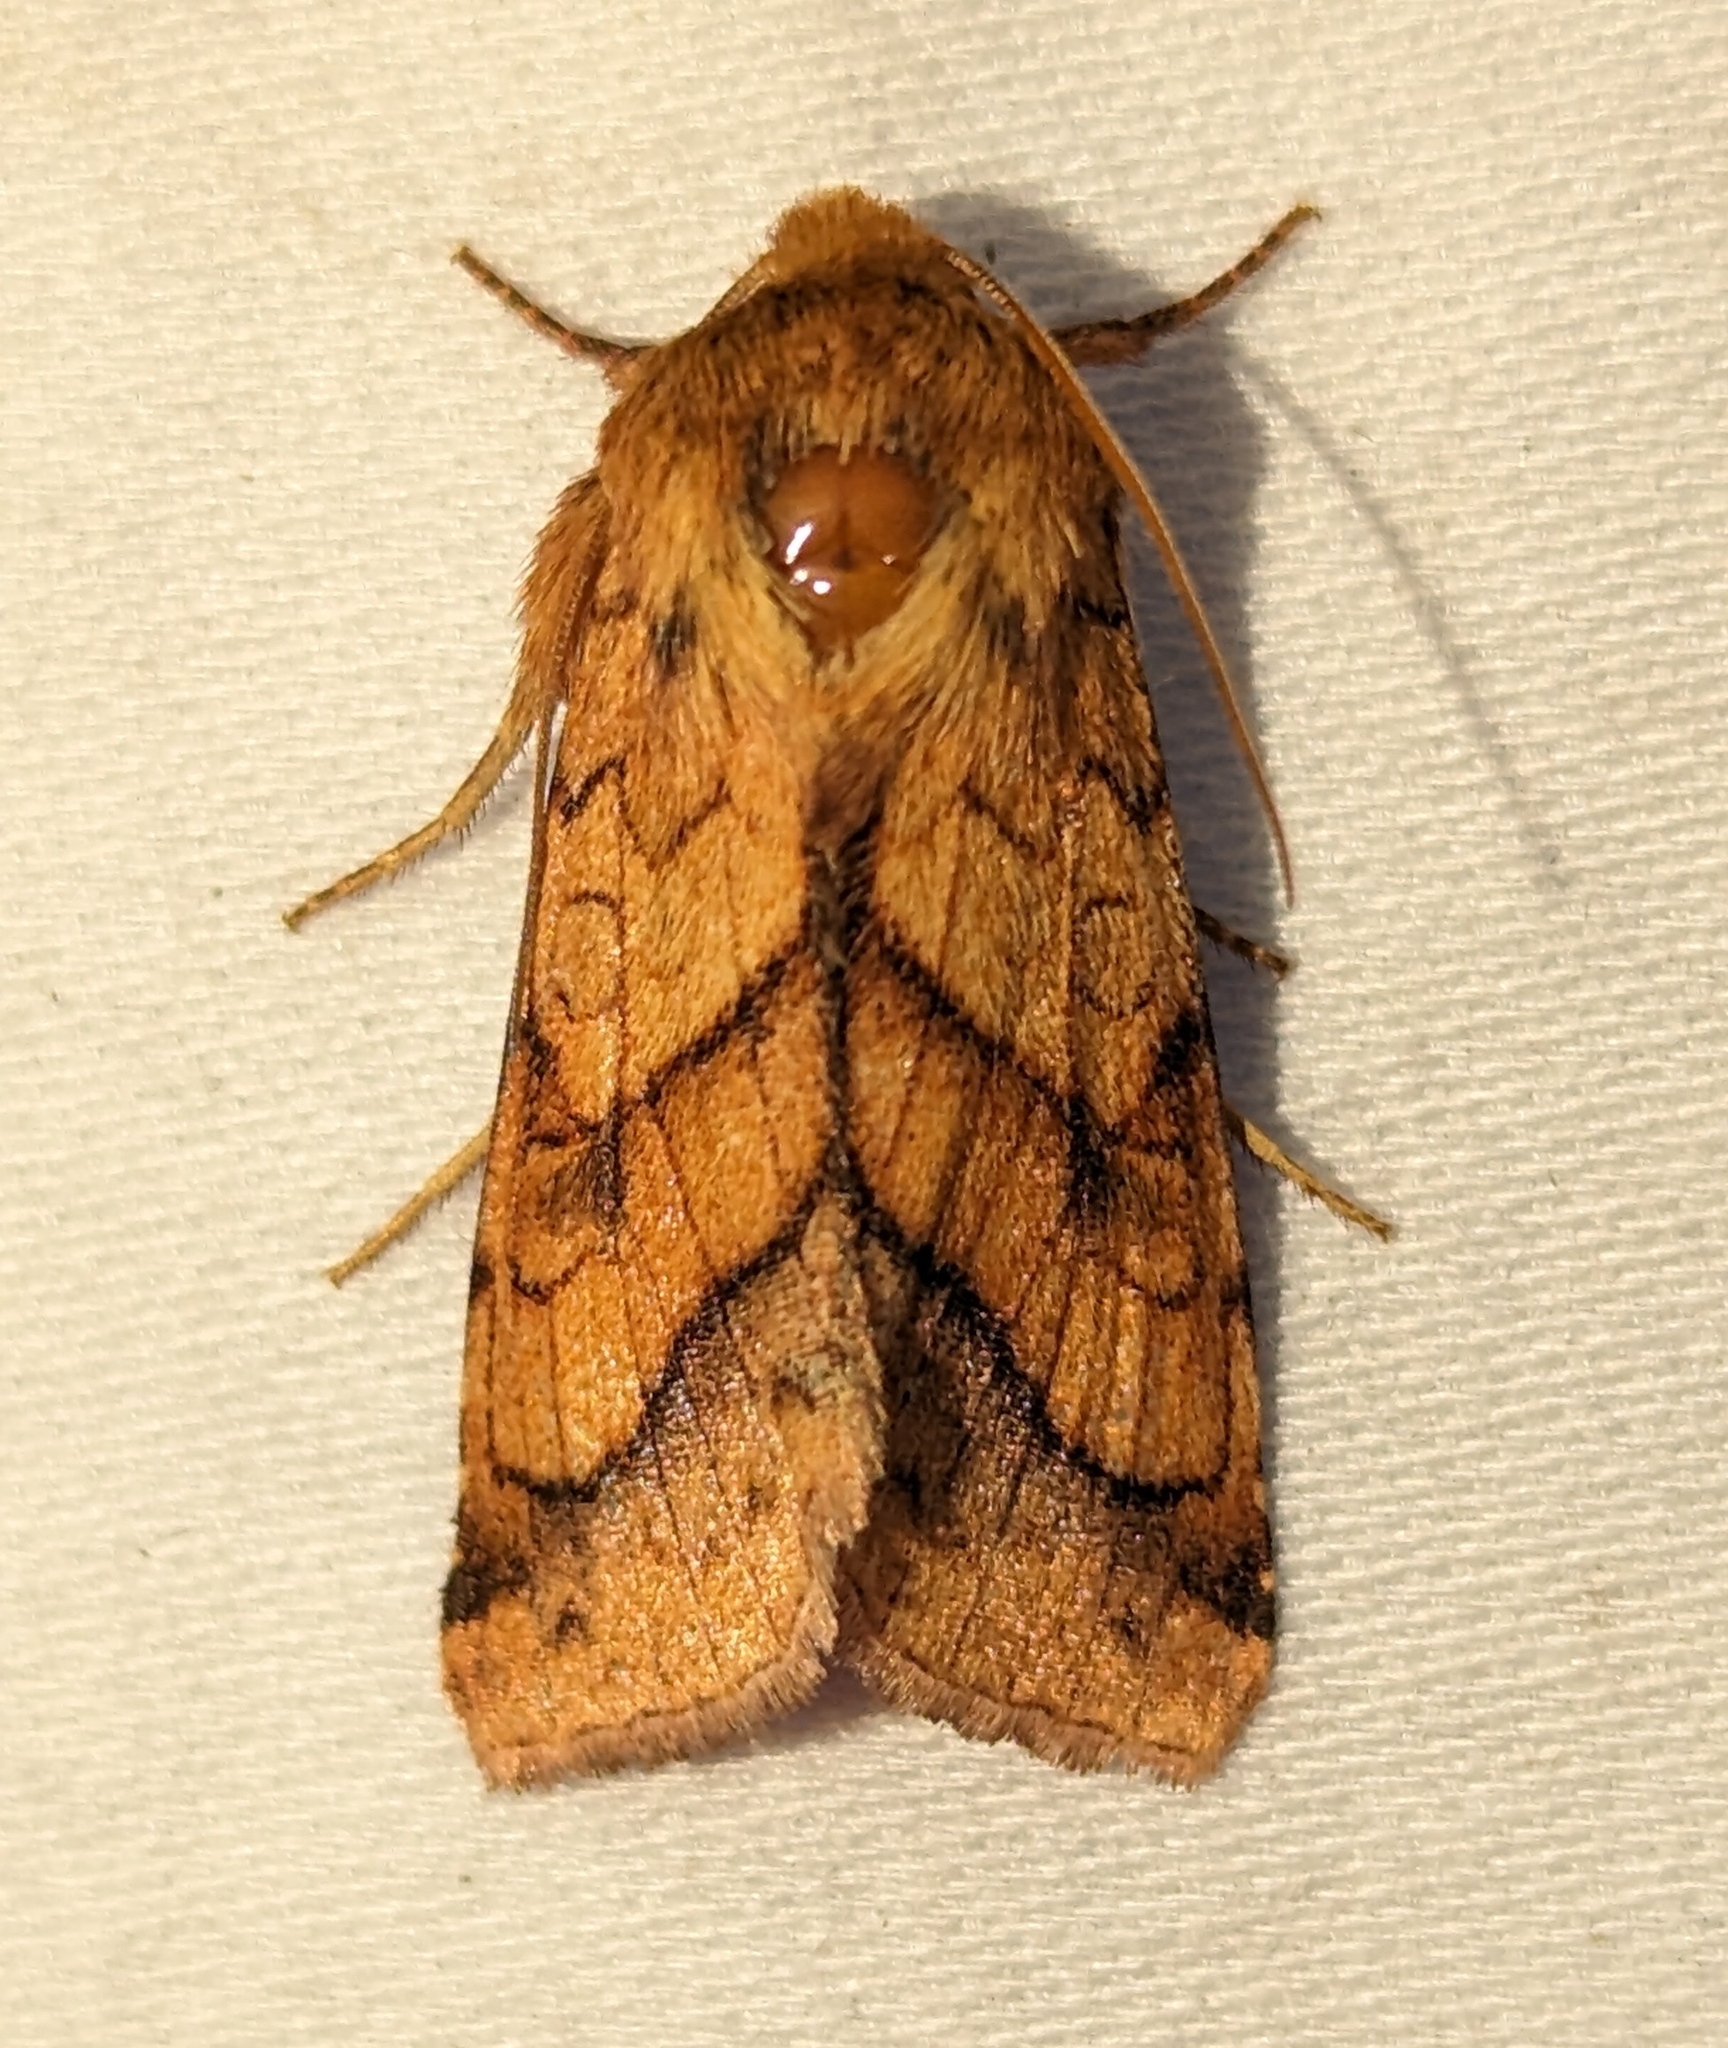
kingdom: Animalia
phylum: Arthropoda
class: Insecta
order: Lepidoptera
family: Noctuidae
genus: Pyrrhia
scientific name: Pyrrhia exprimens
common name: Purple-lined sallow
